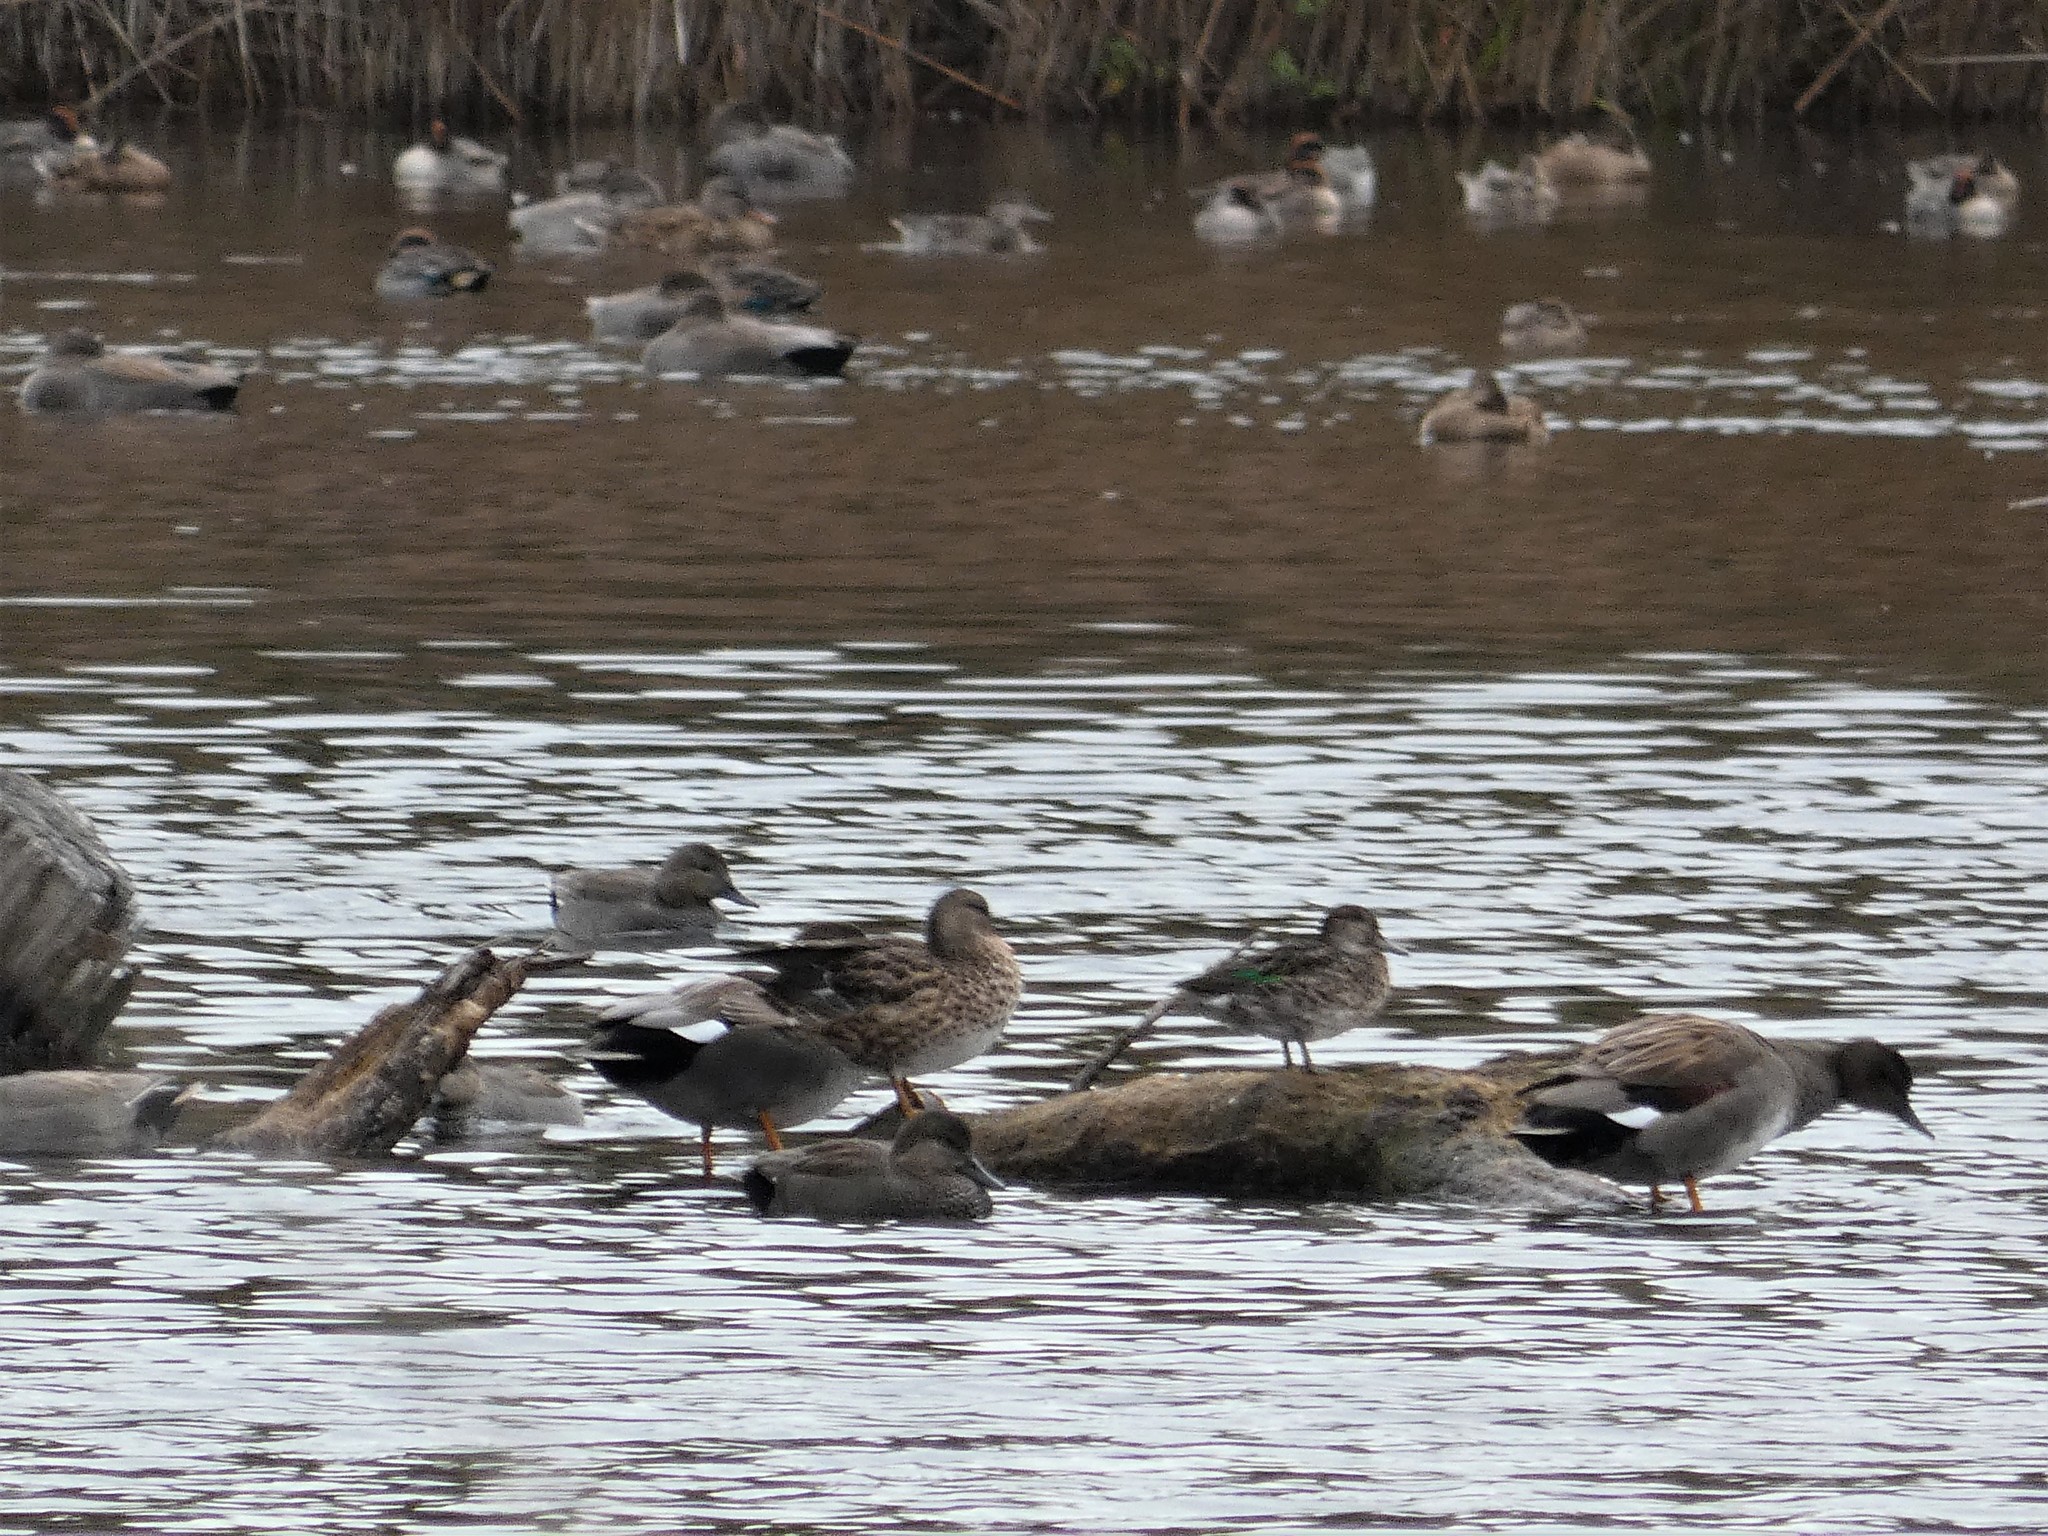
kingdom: Animalia
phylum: Chordata
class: Aves
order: Anseriformes
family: Anatidae
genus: Anas
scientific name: Anas crecca
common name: Eurasian teal
